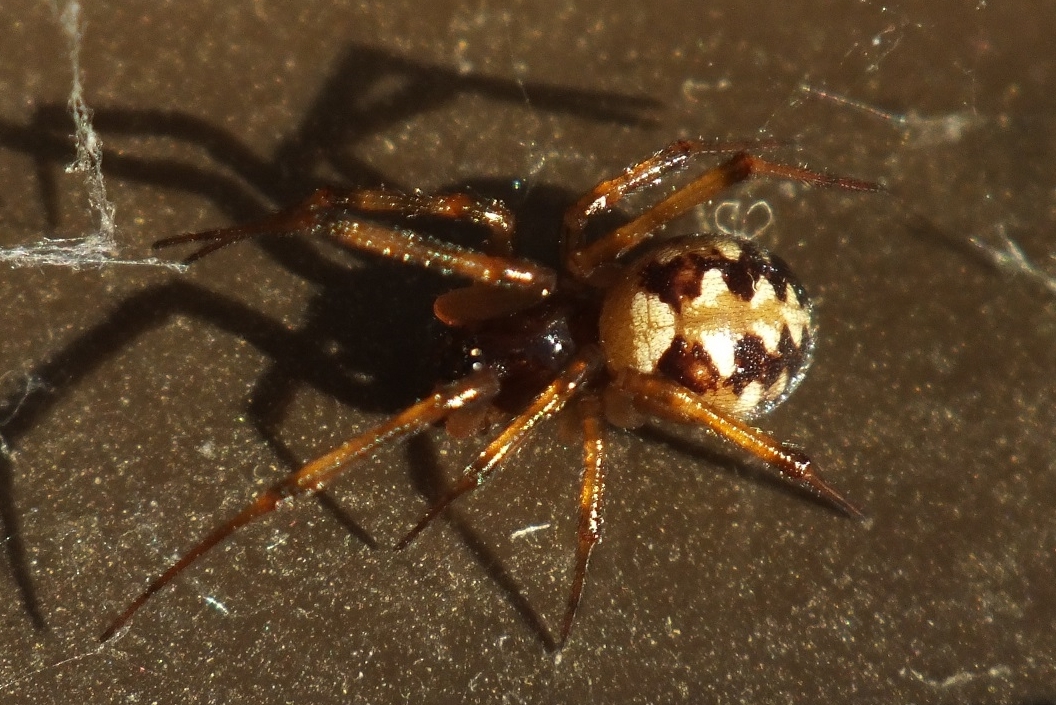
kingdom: Animalia
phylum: Arthropoda
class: Arachnida
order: Araneae
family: Theridiidae
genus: Steatoda
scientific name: Steatoda triangulosa
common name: Triangulate bud spider
